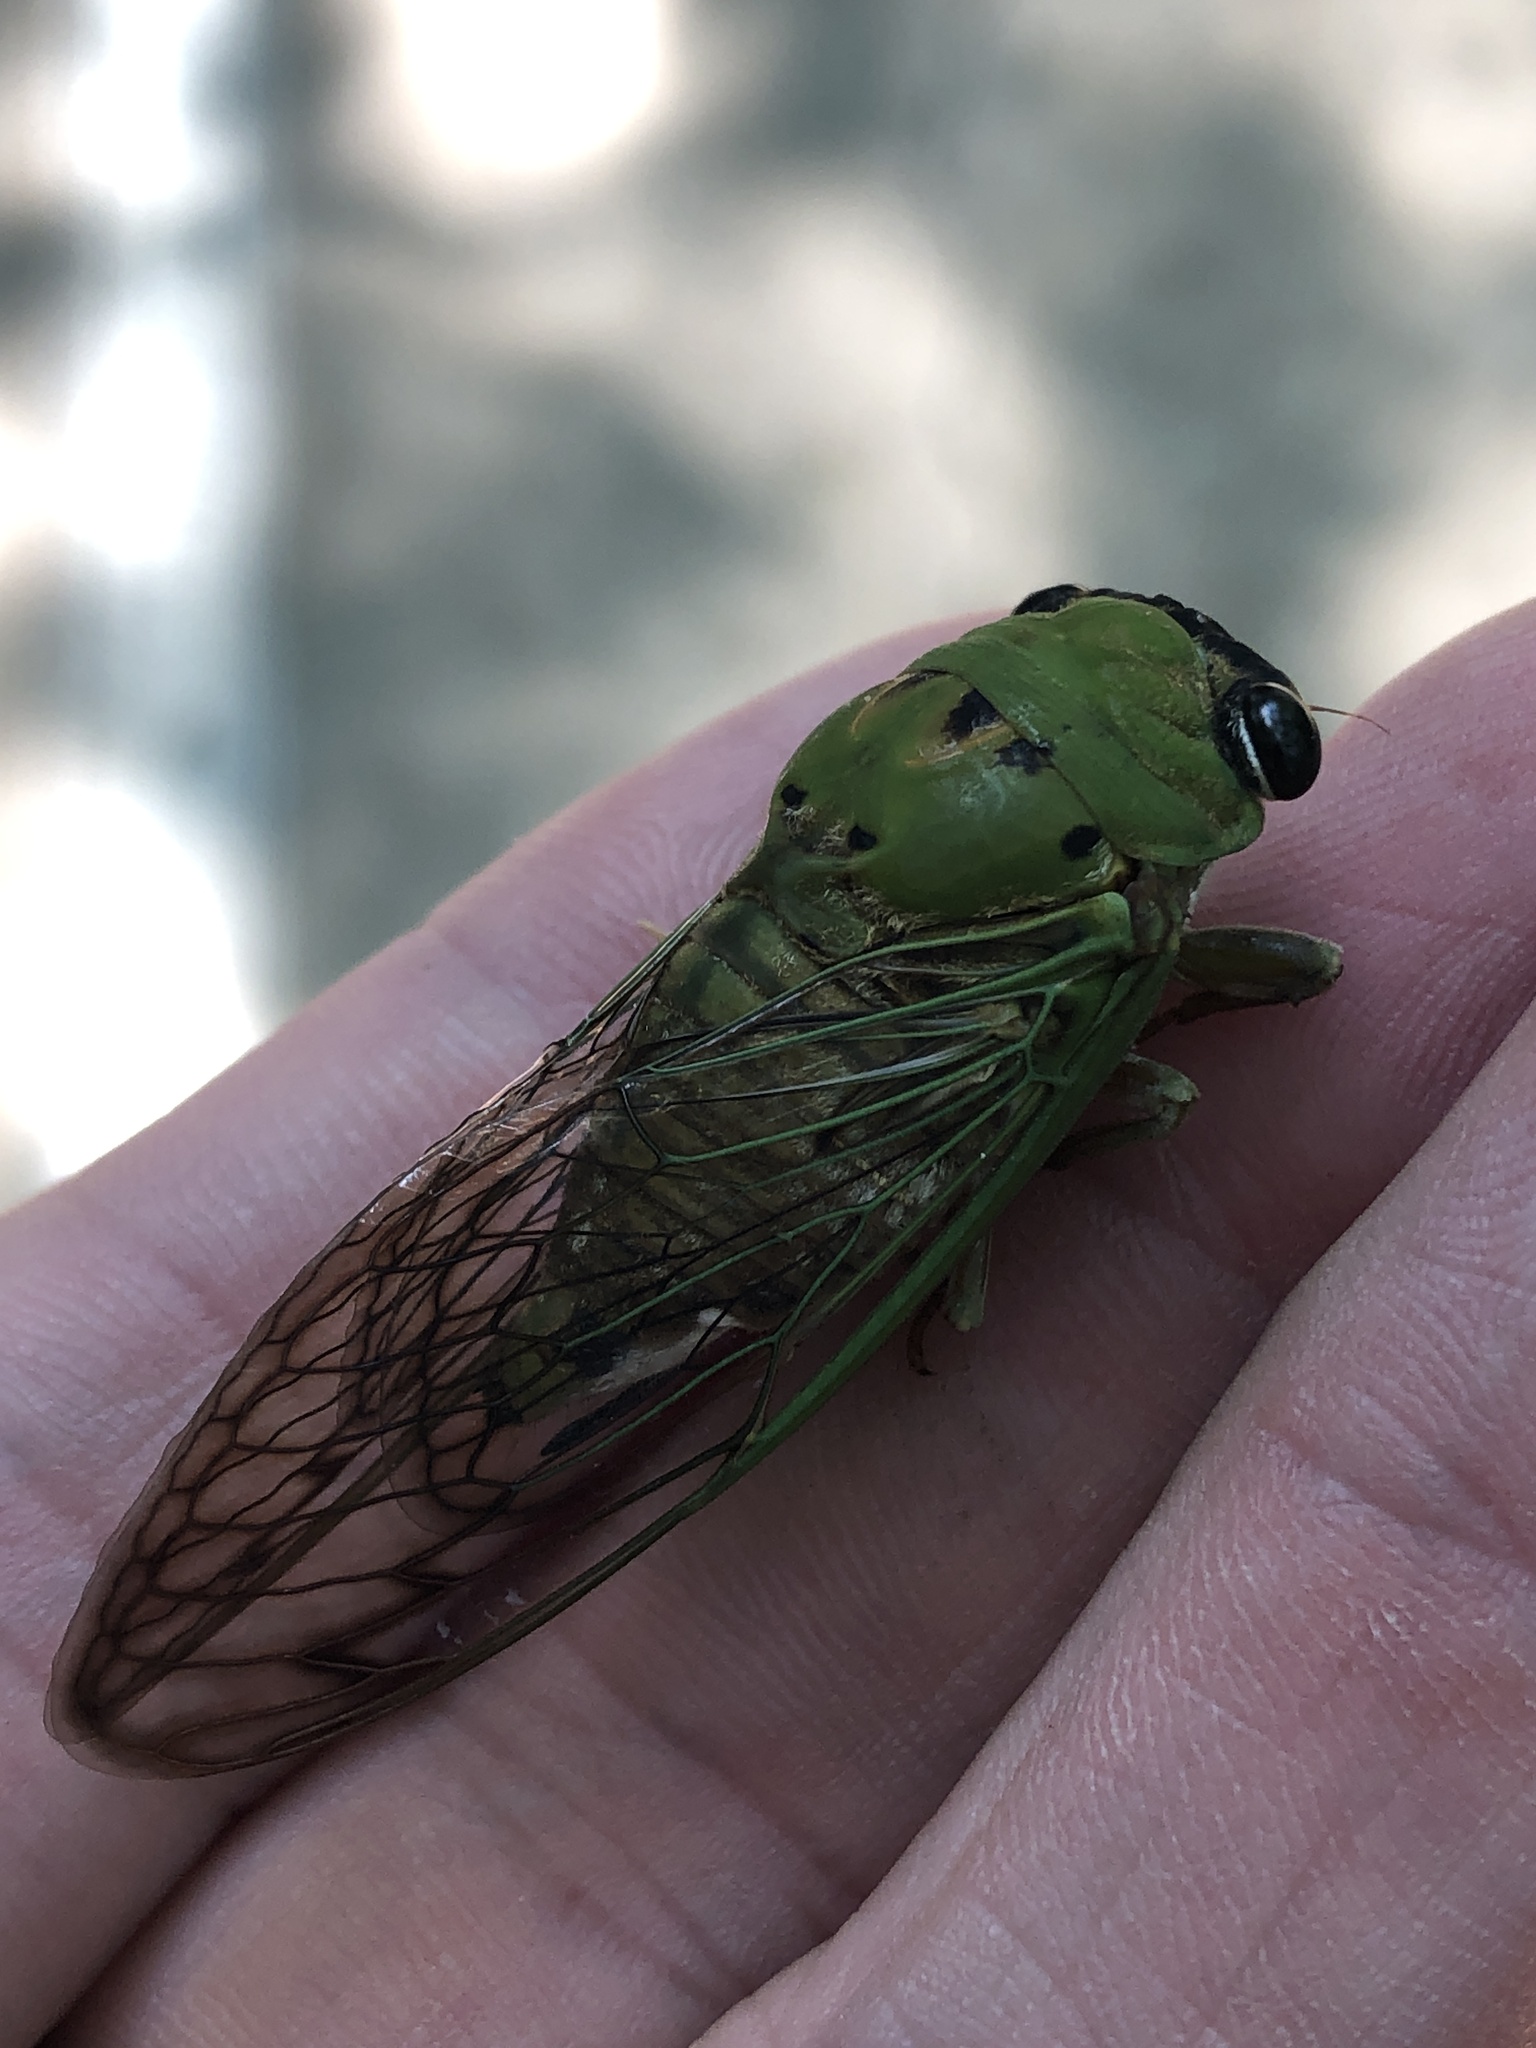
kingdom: Animalia
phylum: Arthropoda
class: Insecta
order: Hemiptera
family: Cicadidae
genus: Neotibicen
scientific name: Neotibicen superbus
